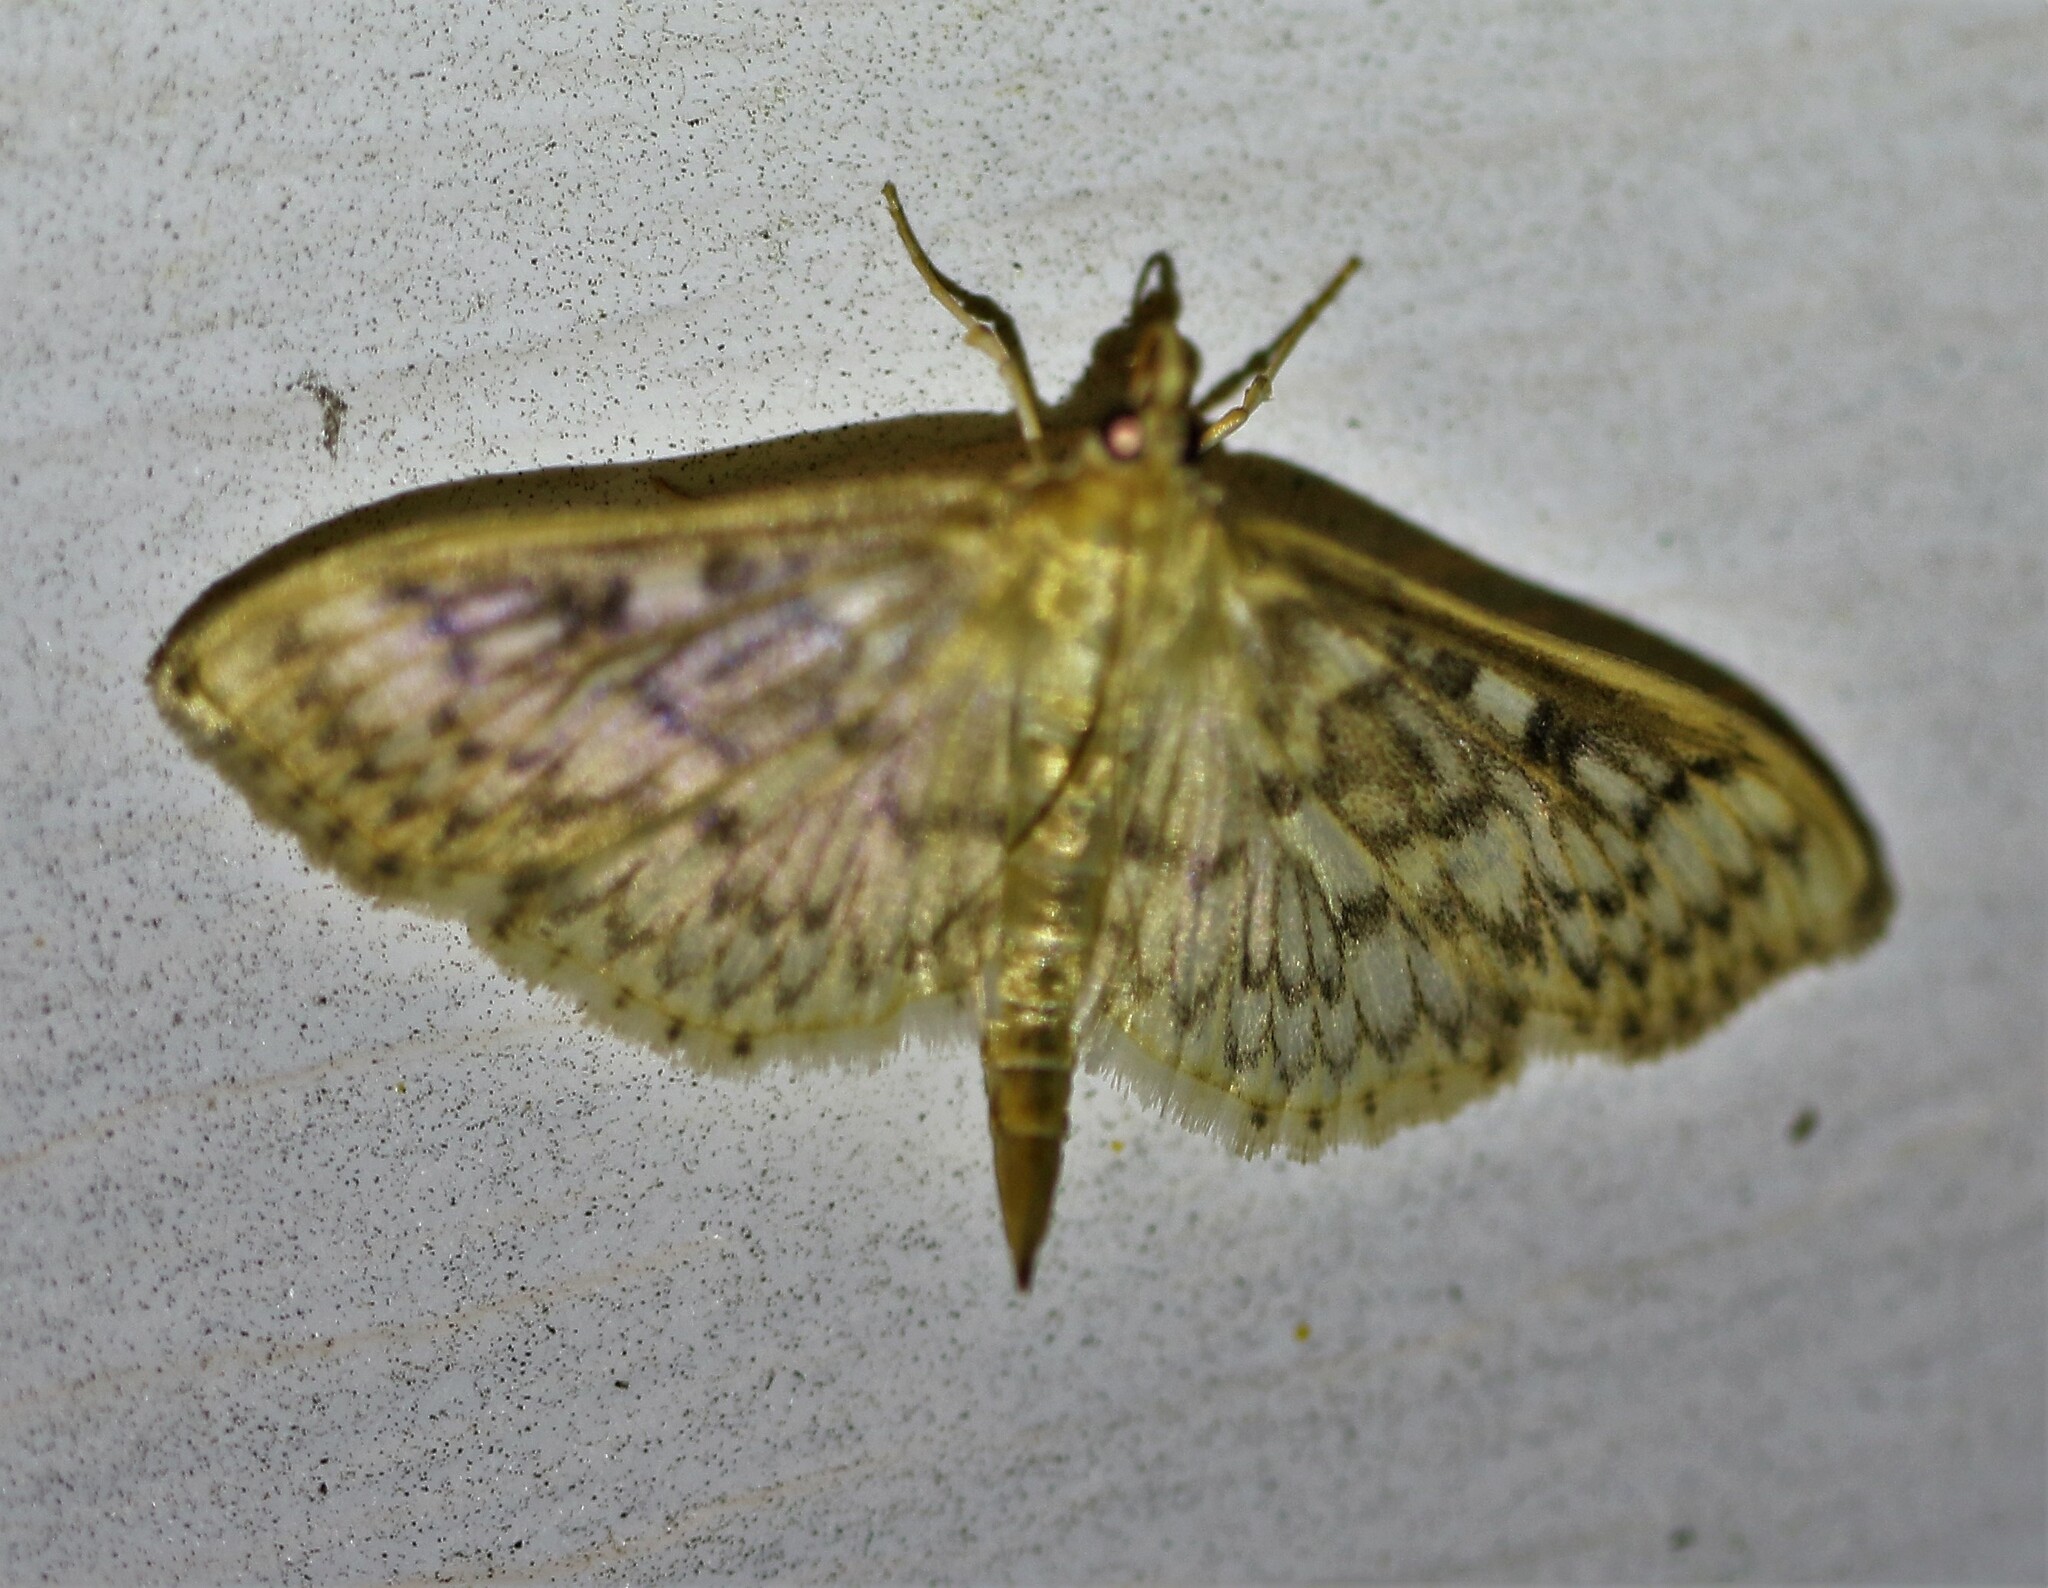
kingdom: Animalia
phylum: Arthropoda
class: Insecta
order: Lepidoptera
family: Crambidae
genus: Herpetogramma
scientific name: Herpetogramma pertextalis
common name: Bold-feathered grass moth
